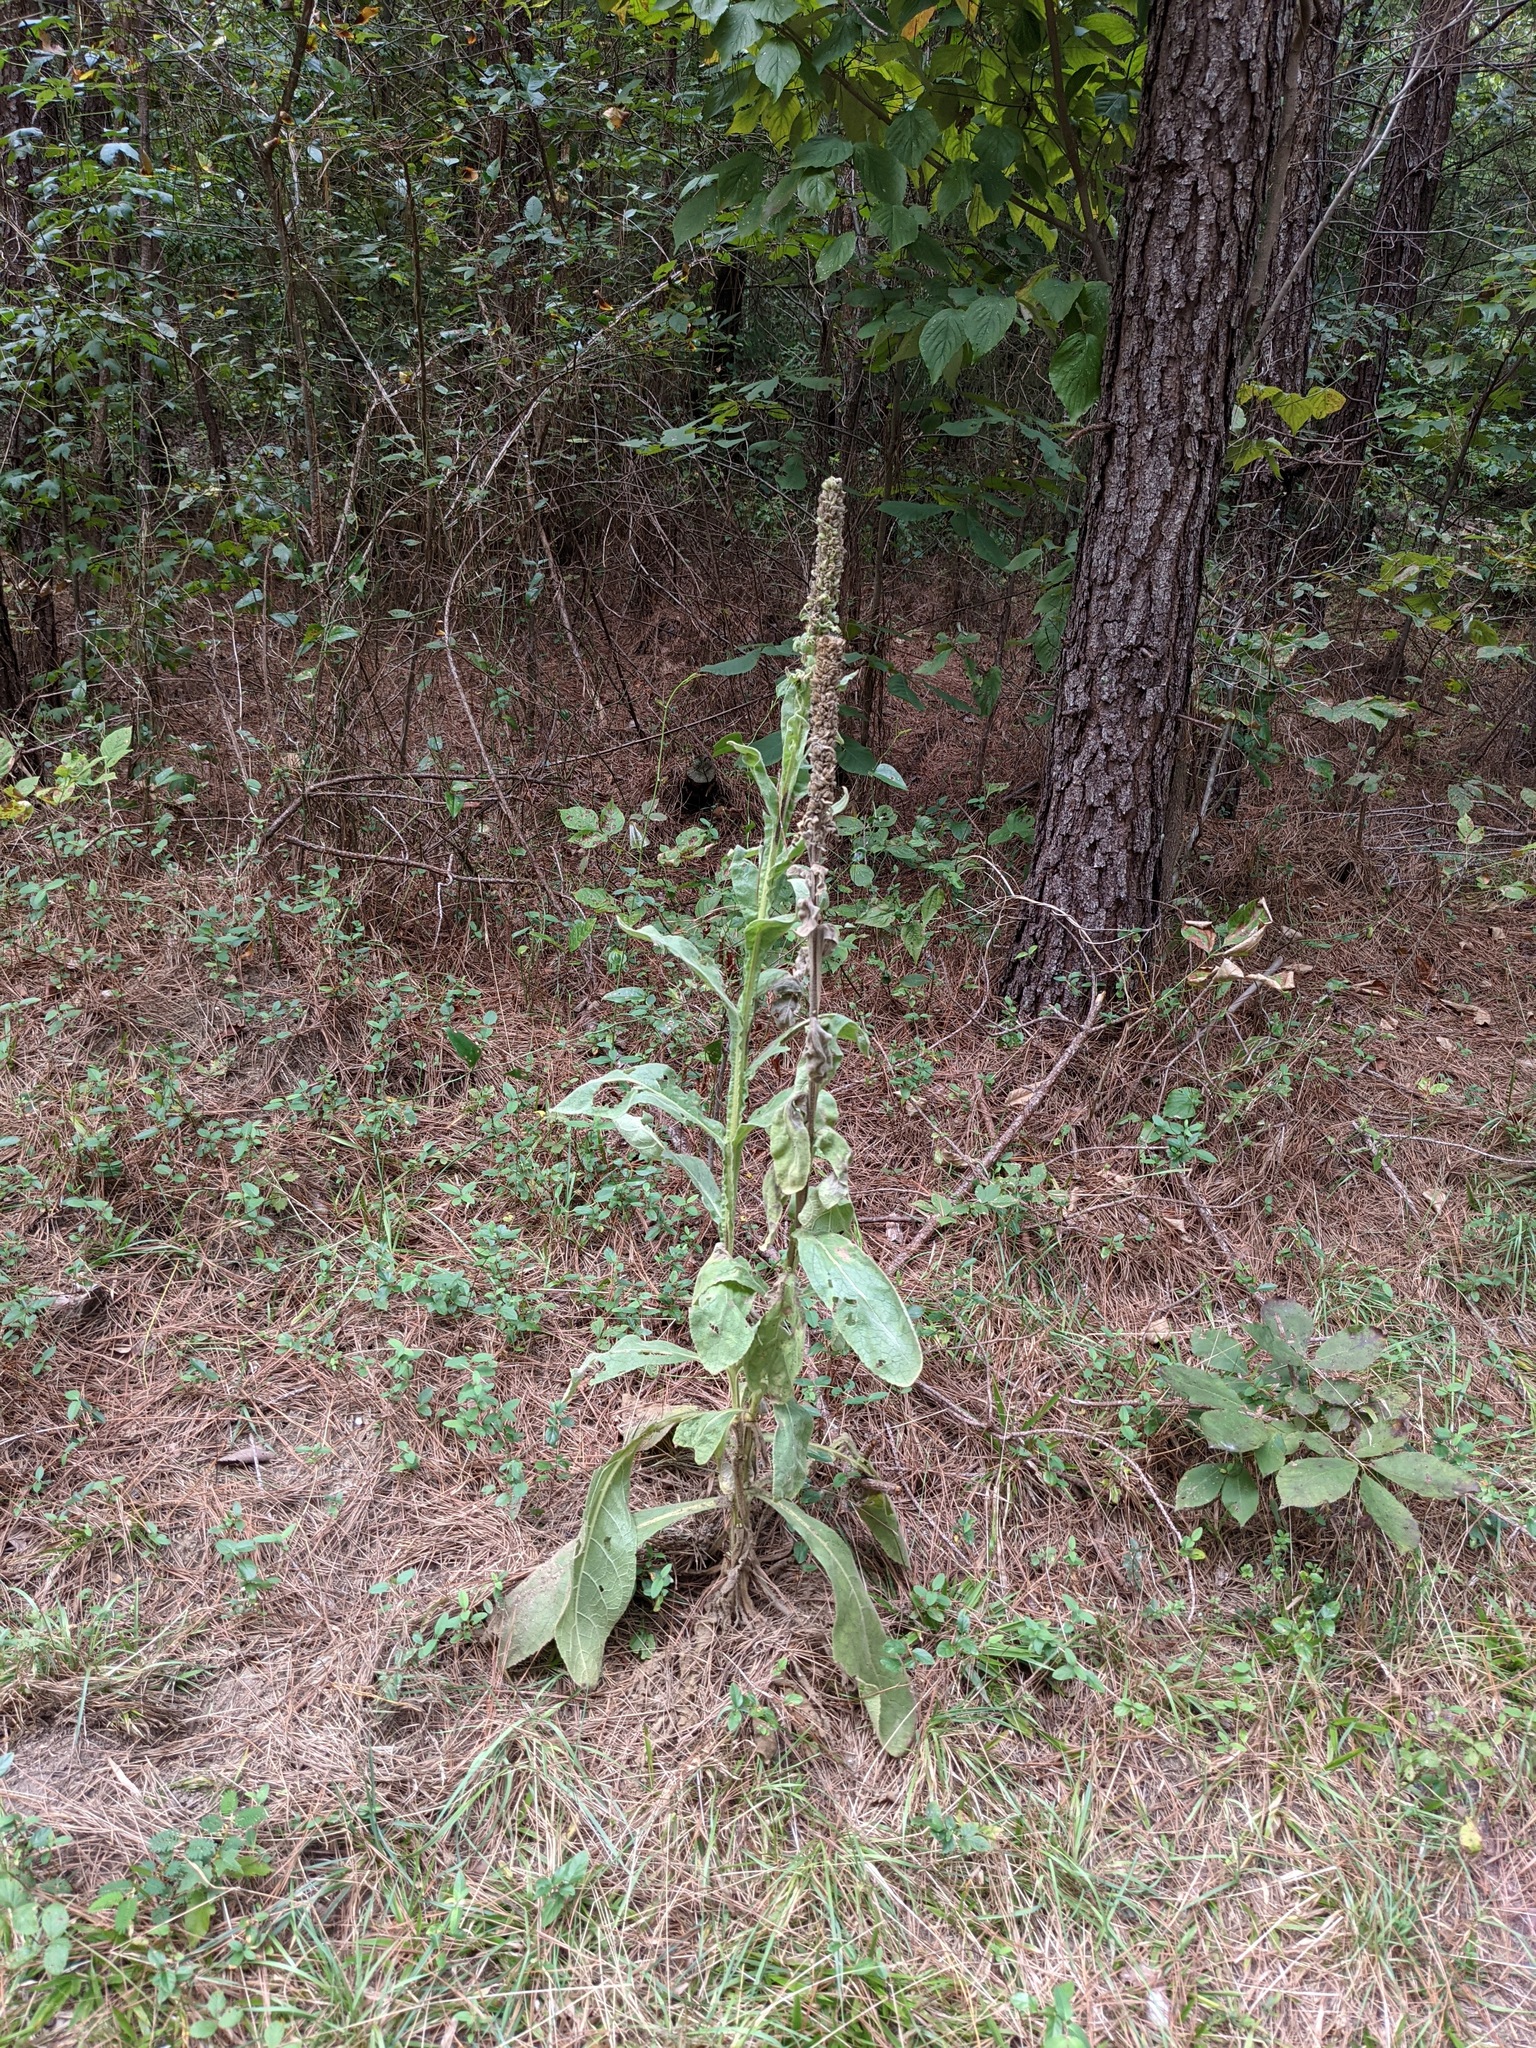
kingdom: Plantae
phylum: Tracheophyta
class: Magnoliopsida
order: Lamiales
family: Scrophulariaceae
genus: Verbascum
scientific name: Verbascum thapsus
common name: Common mullein
